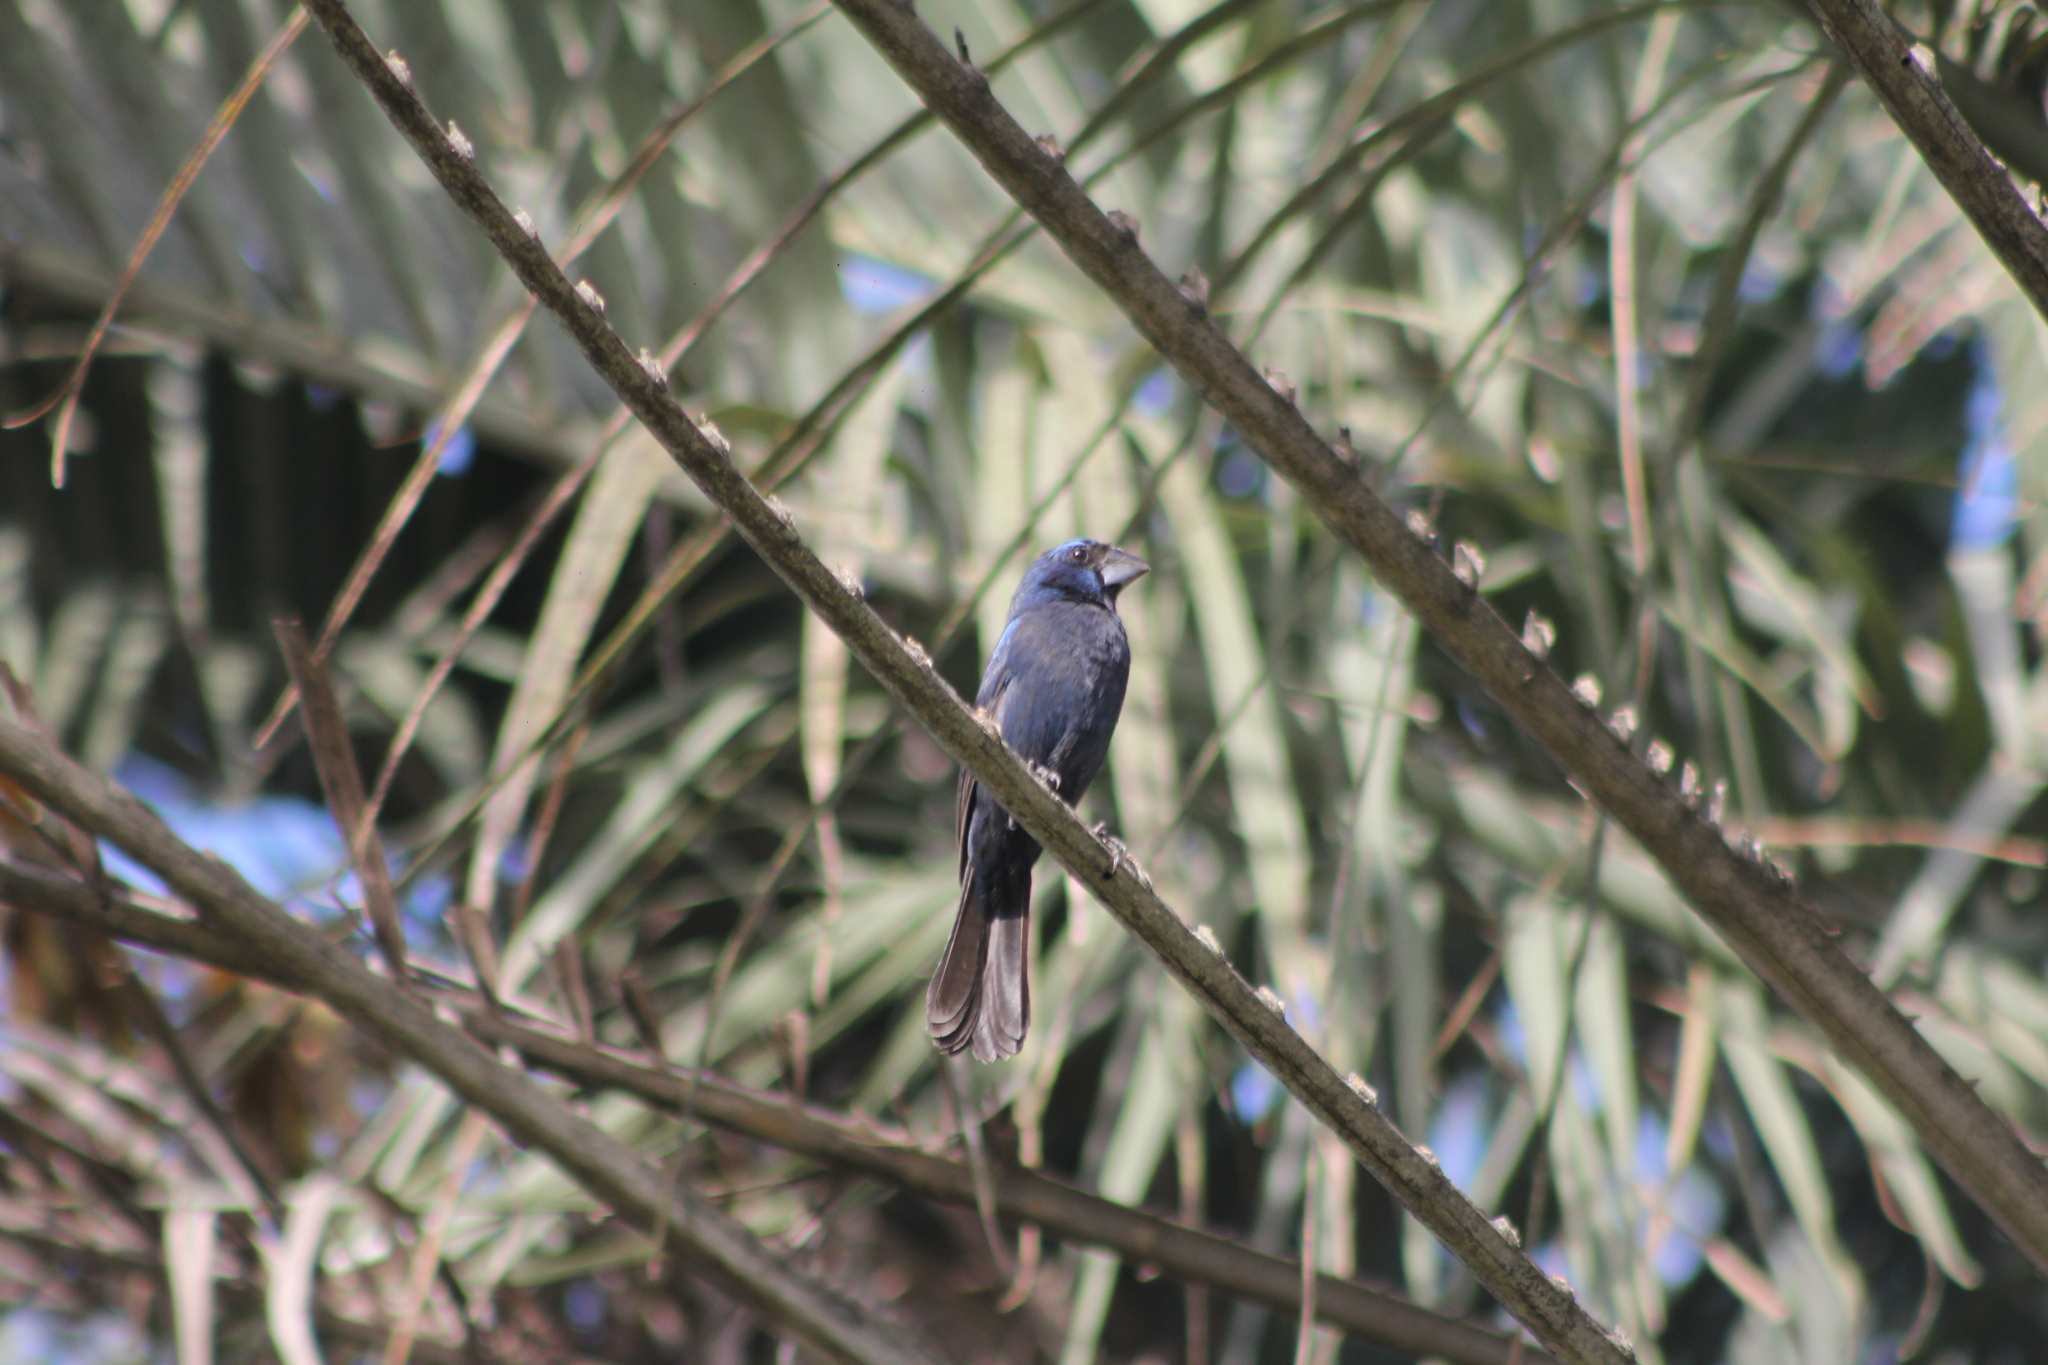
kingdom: Animalia
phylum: Chordata
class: Aves
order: Passeriformes
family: Cardinalidae
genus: Cyanoloxia
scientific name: Cyanoloxia brissonii
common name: Ultramarine grosbeak
